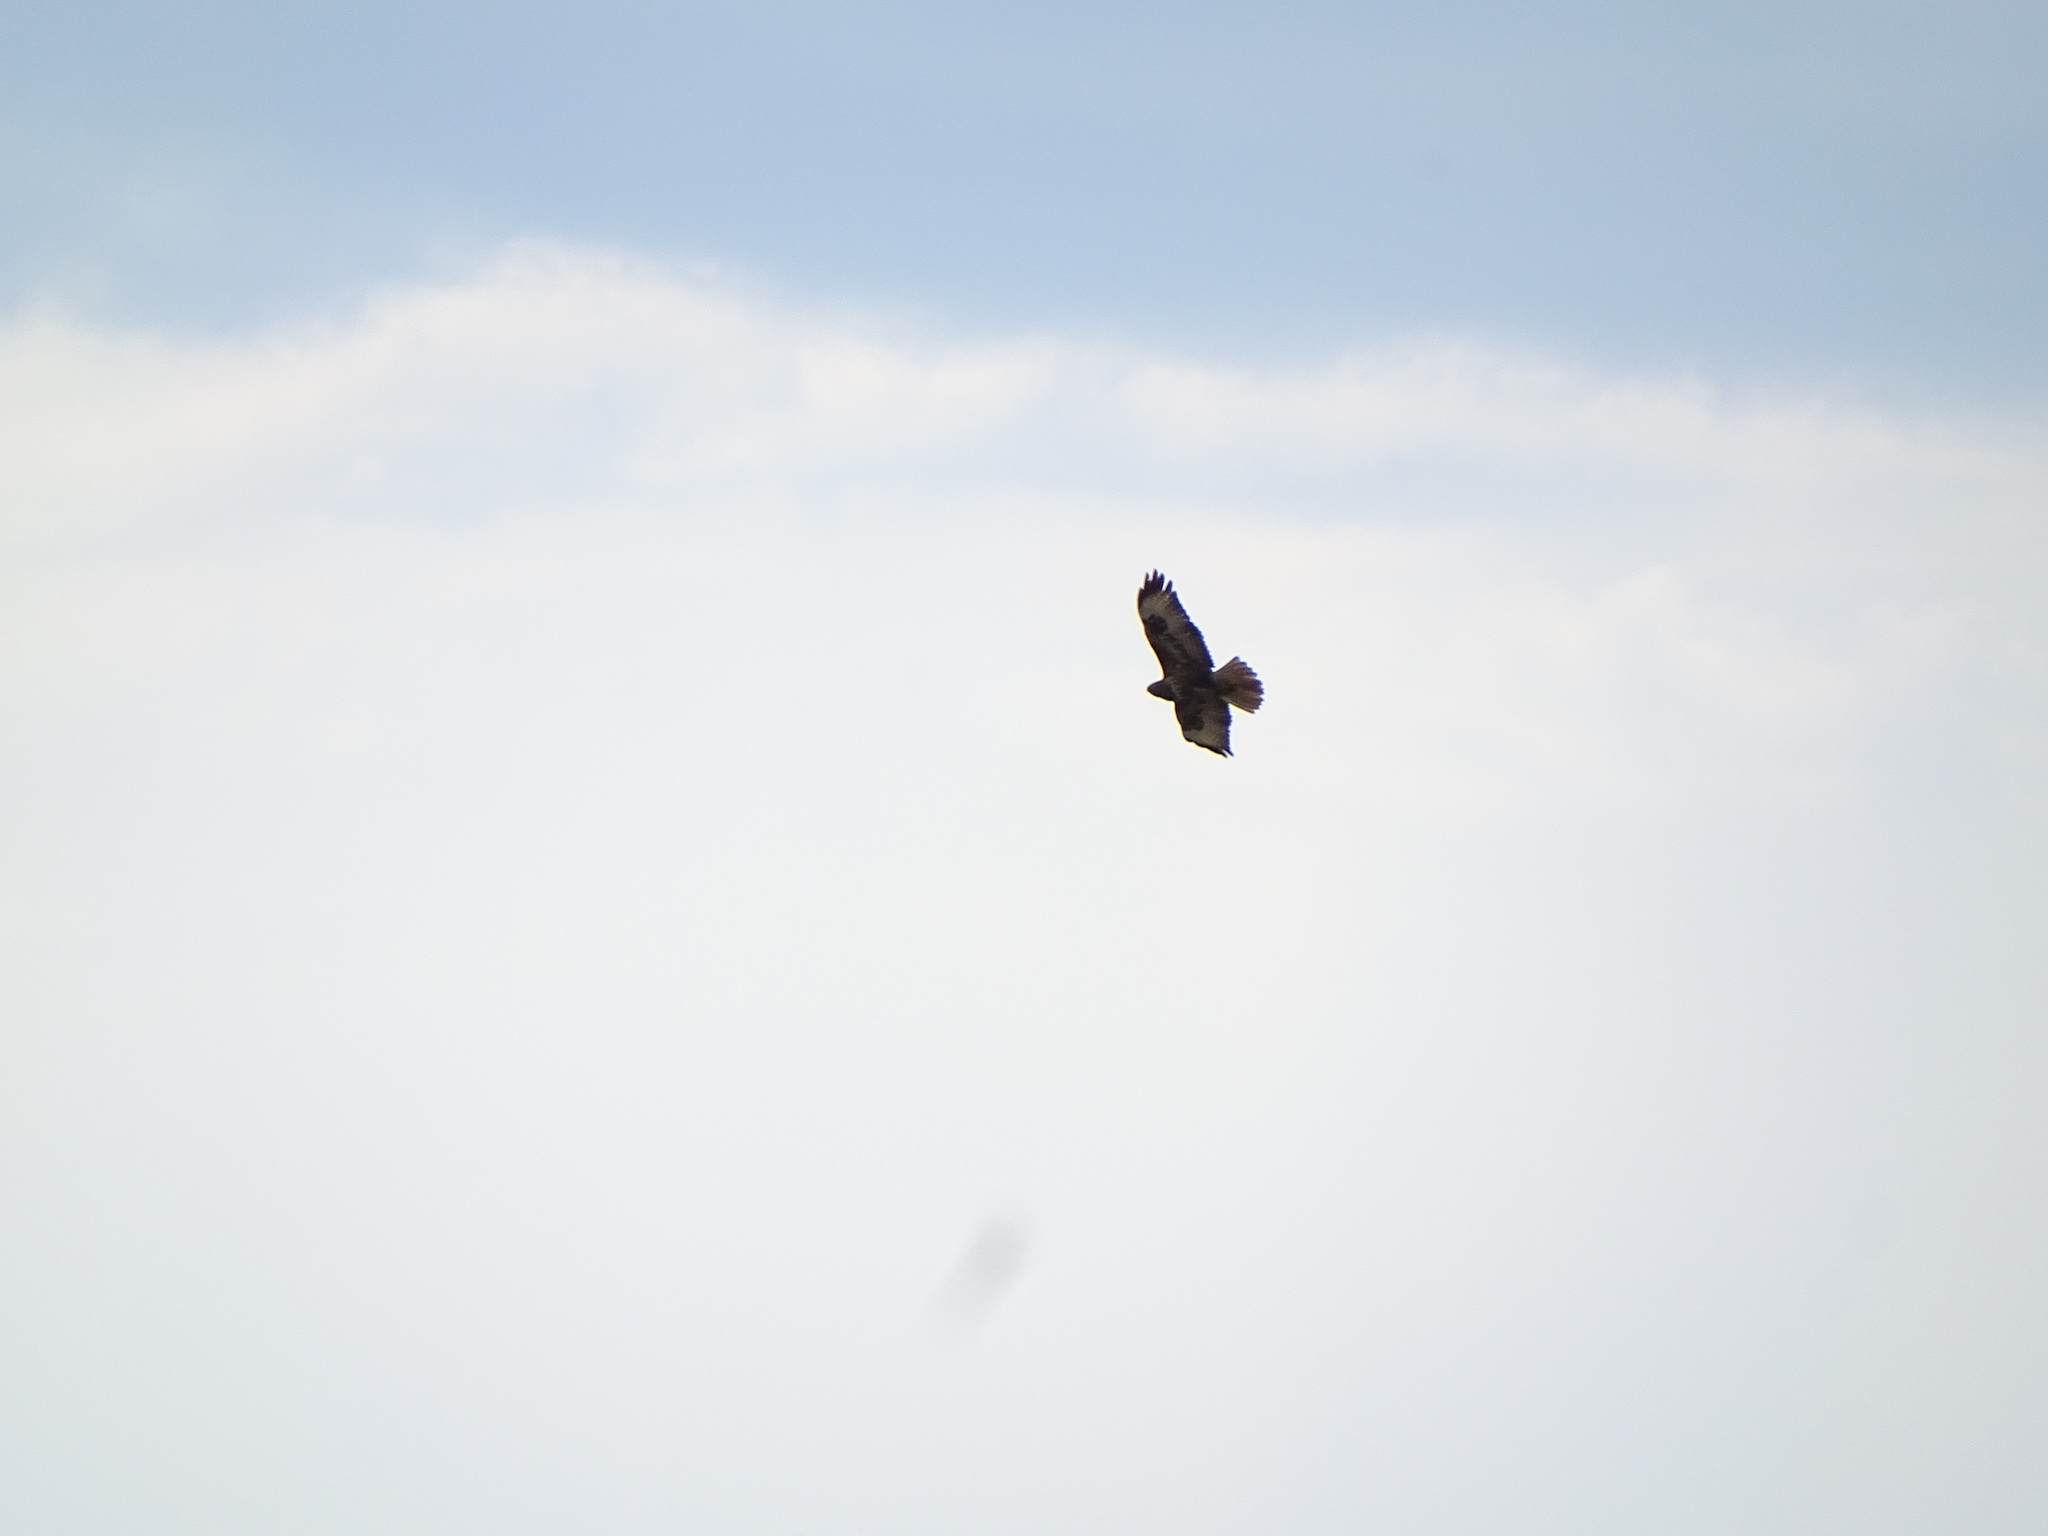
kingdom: Animalia
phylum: Chordata
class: Aves
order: Accipitriformes
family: Accipitridae
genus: Buteo
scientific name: Buteo buteo
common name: Common buzzard
